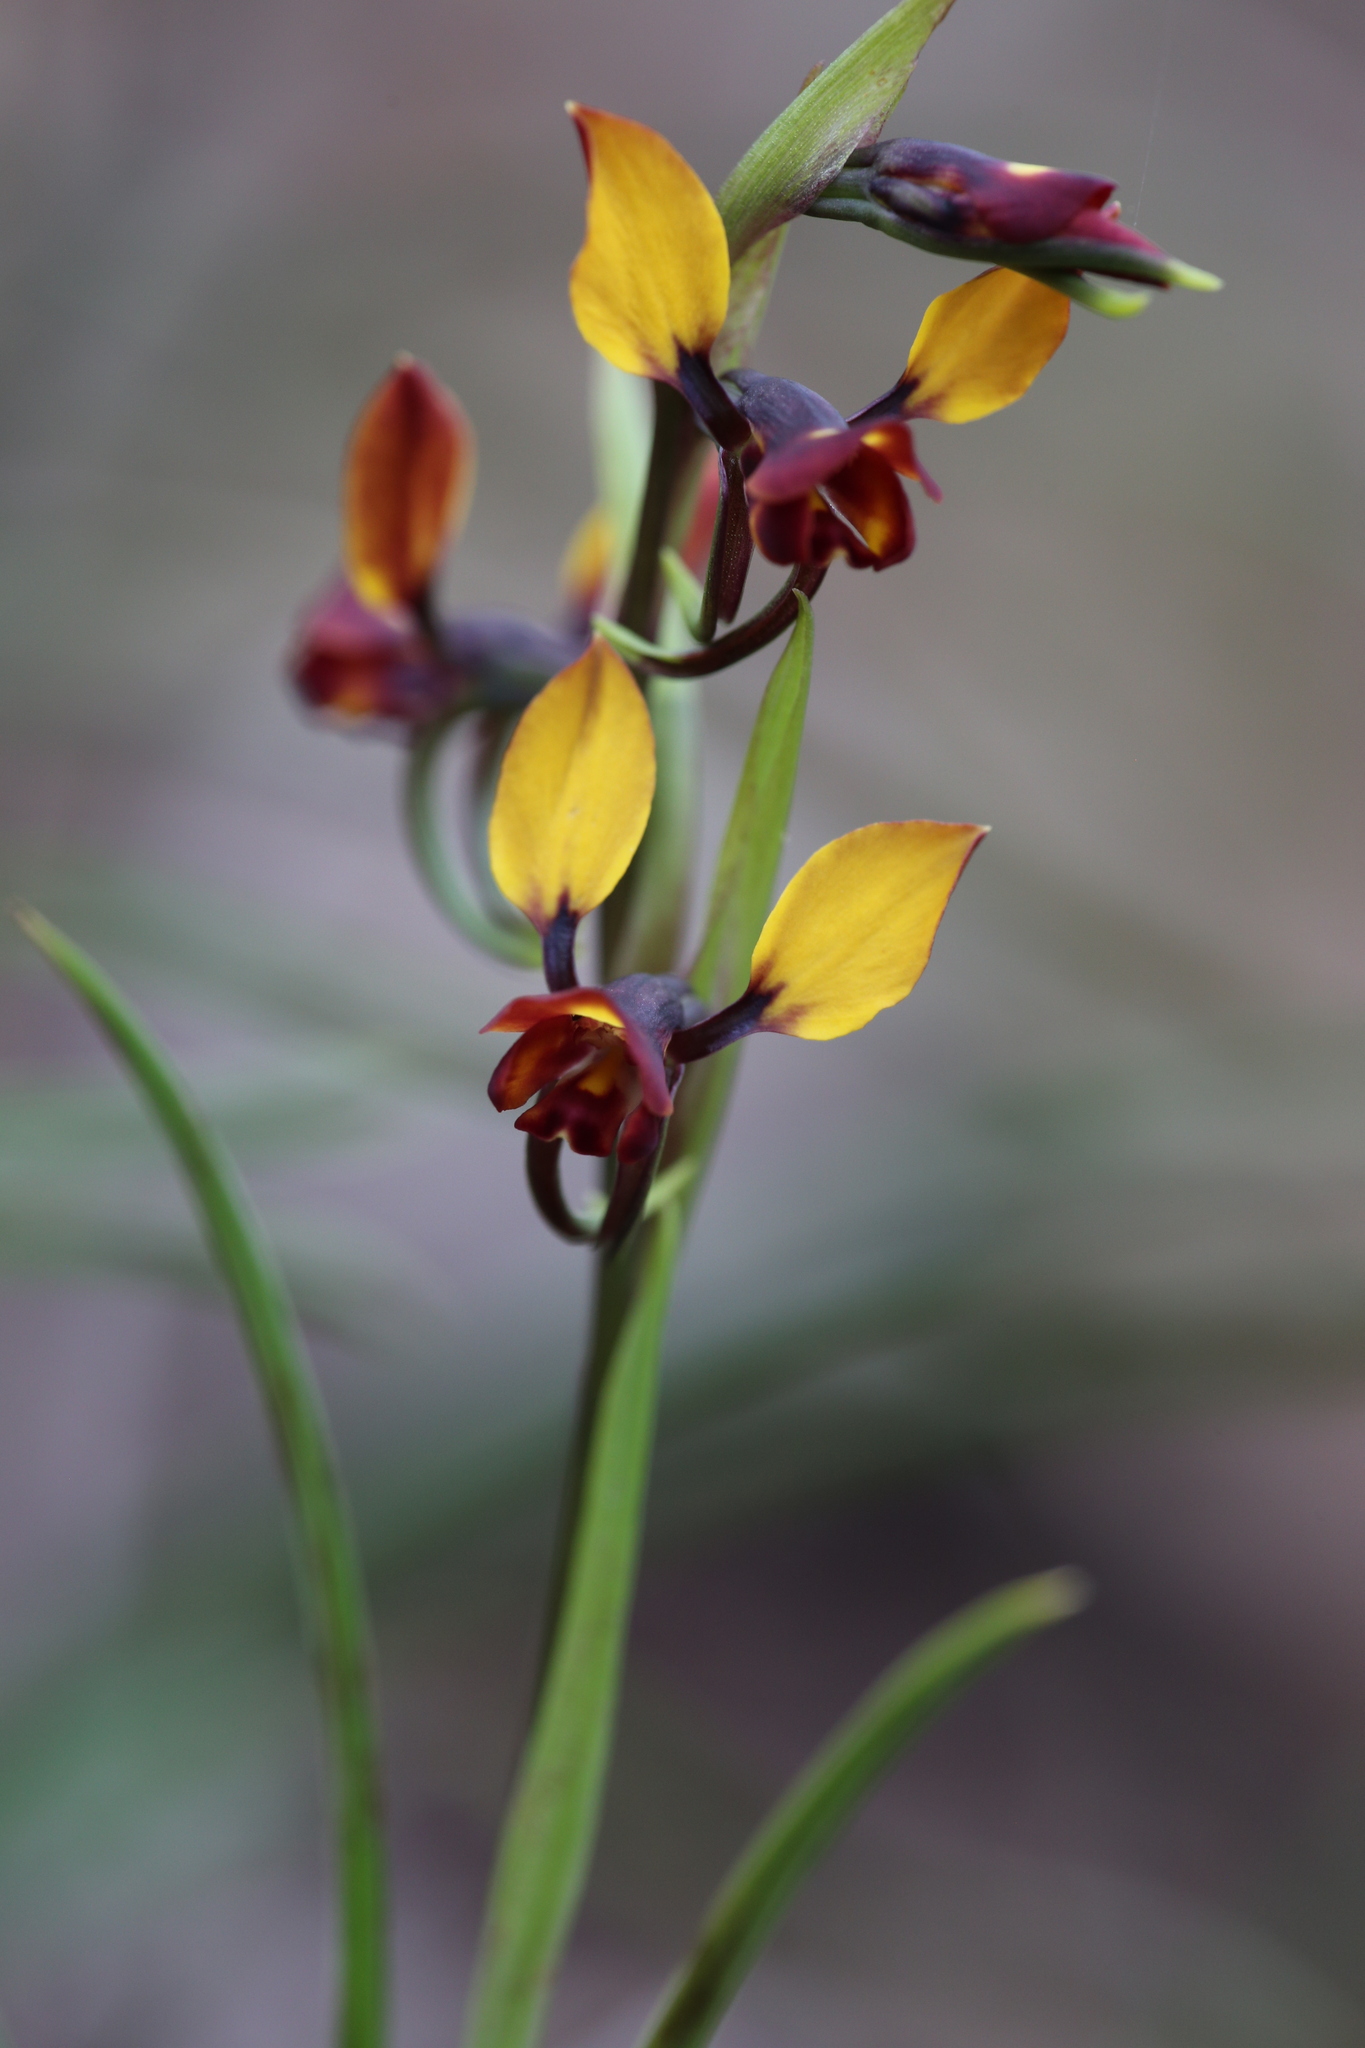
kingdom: Plantae
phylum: Tracheophyta
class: Liliopsida
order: Asparagales
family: Orchidaceae
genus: Diuris
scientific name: Diuris porrifolia
